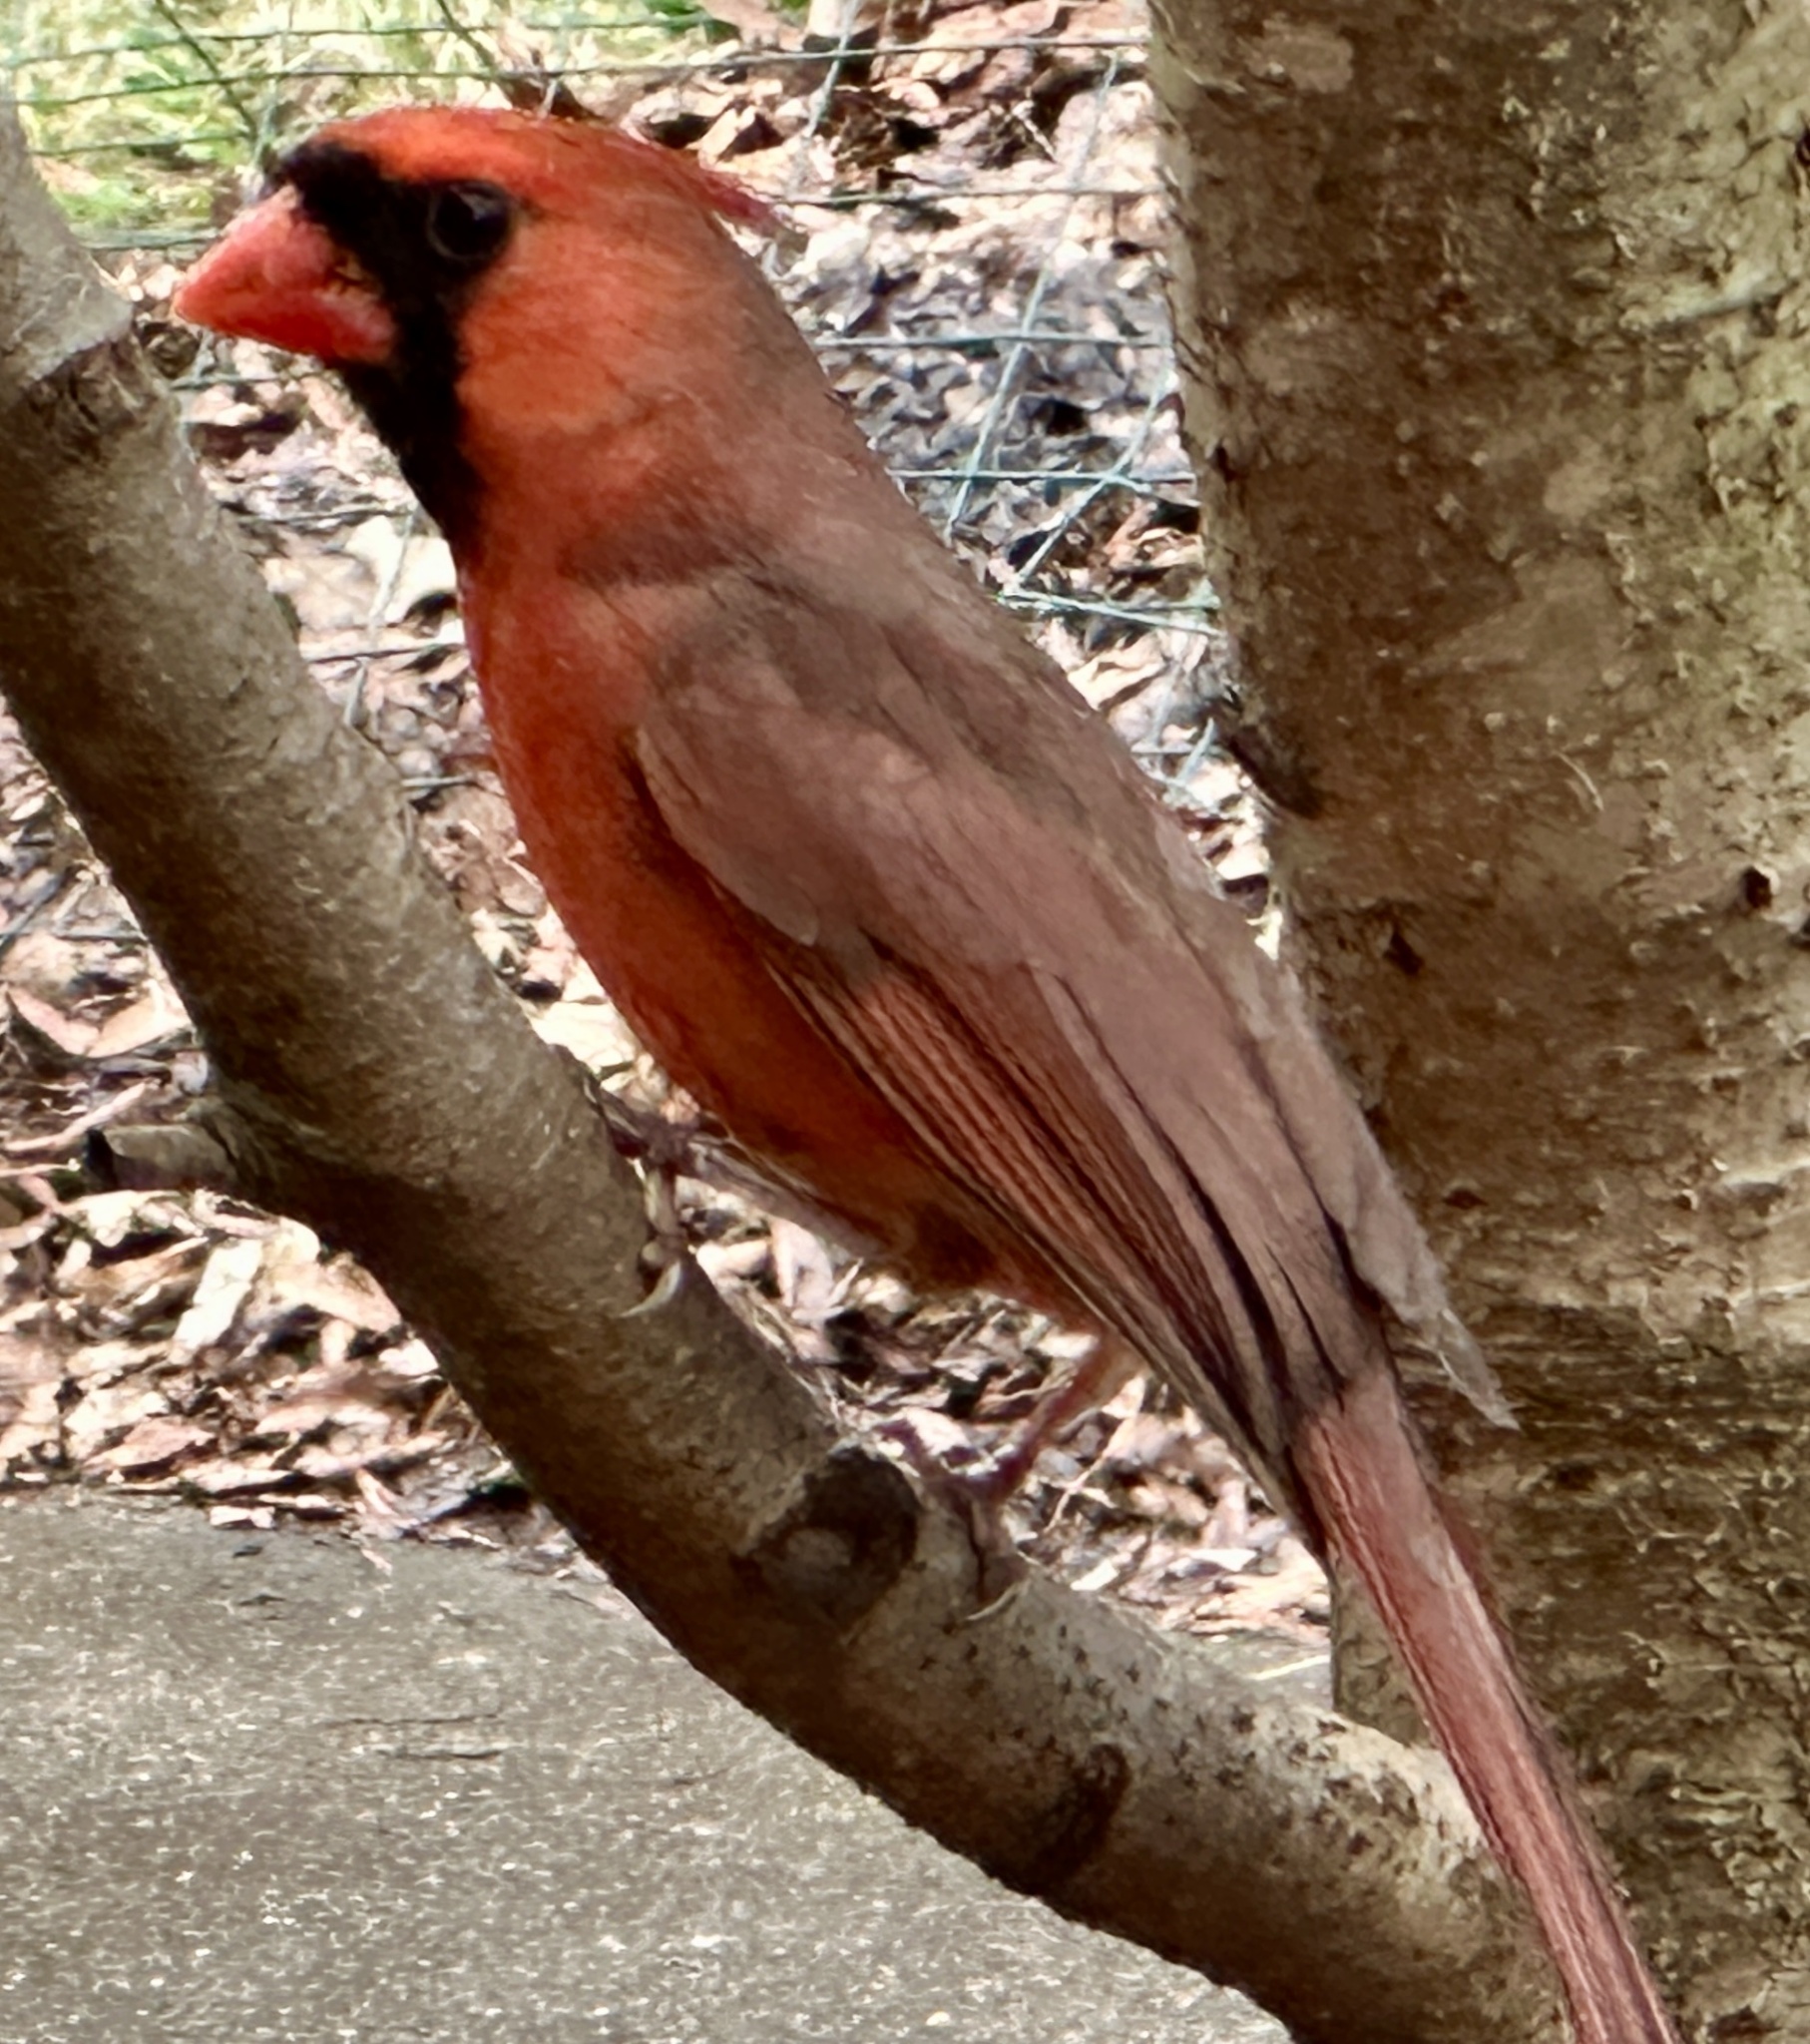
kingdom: Animalia
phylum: Chordata
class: Aves
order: Passeriformes
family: Cardinalidae
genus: Cardinalis
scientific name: Cardinalis cardinalis
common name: Northern cardinal
